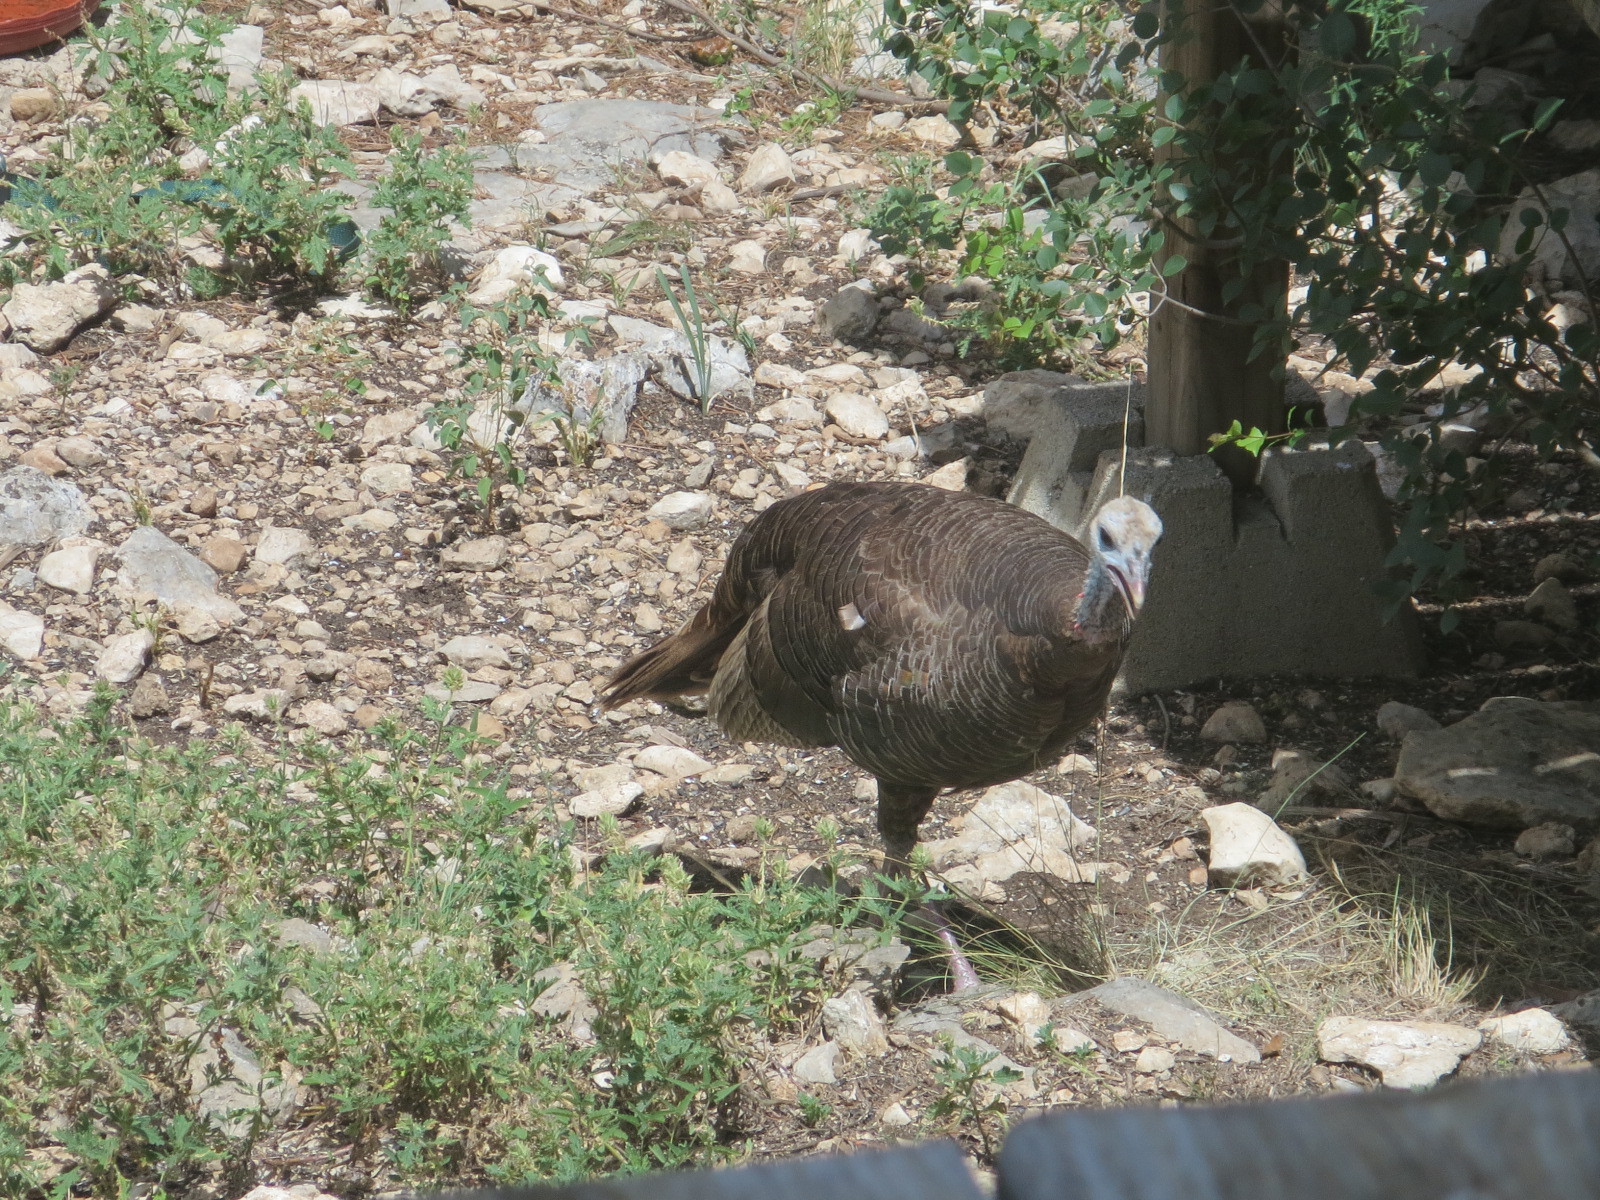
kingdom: Animalia
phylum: Chordata
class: Aves
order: Galliformes
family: Phasianidae
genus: Meleagris
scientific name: Meleagris gallopavo
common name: Wild turkey
